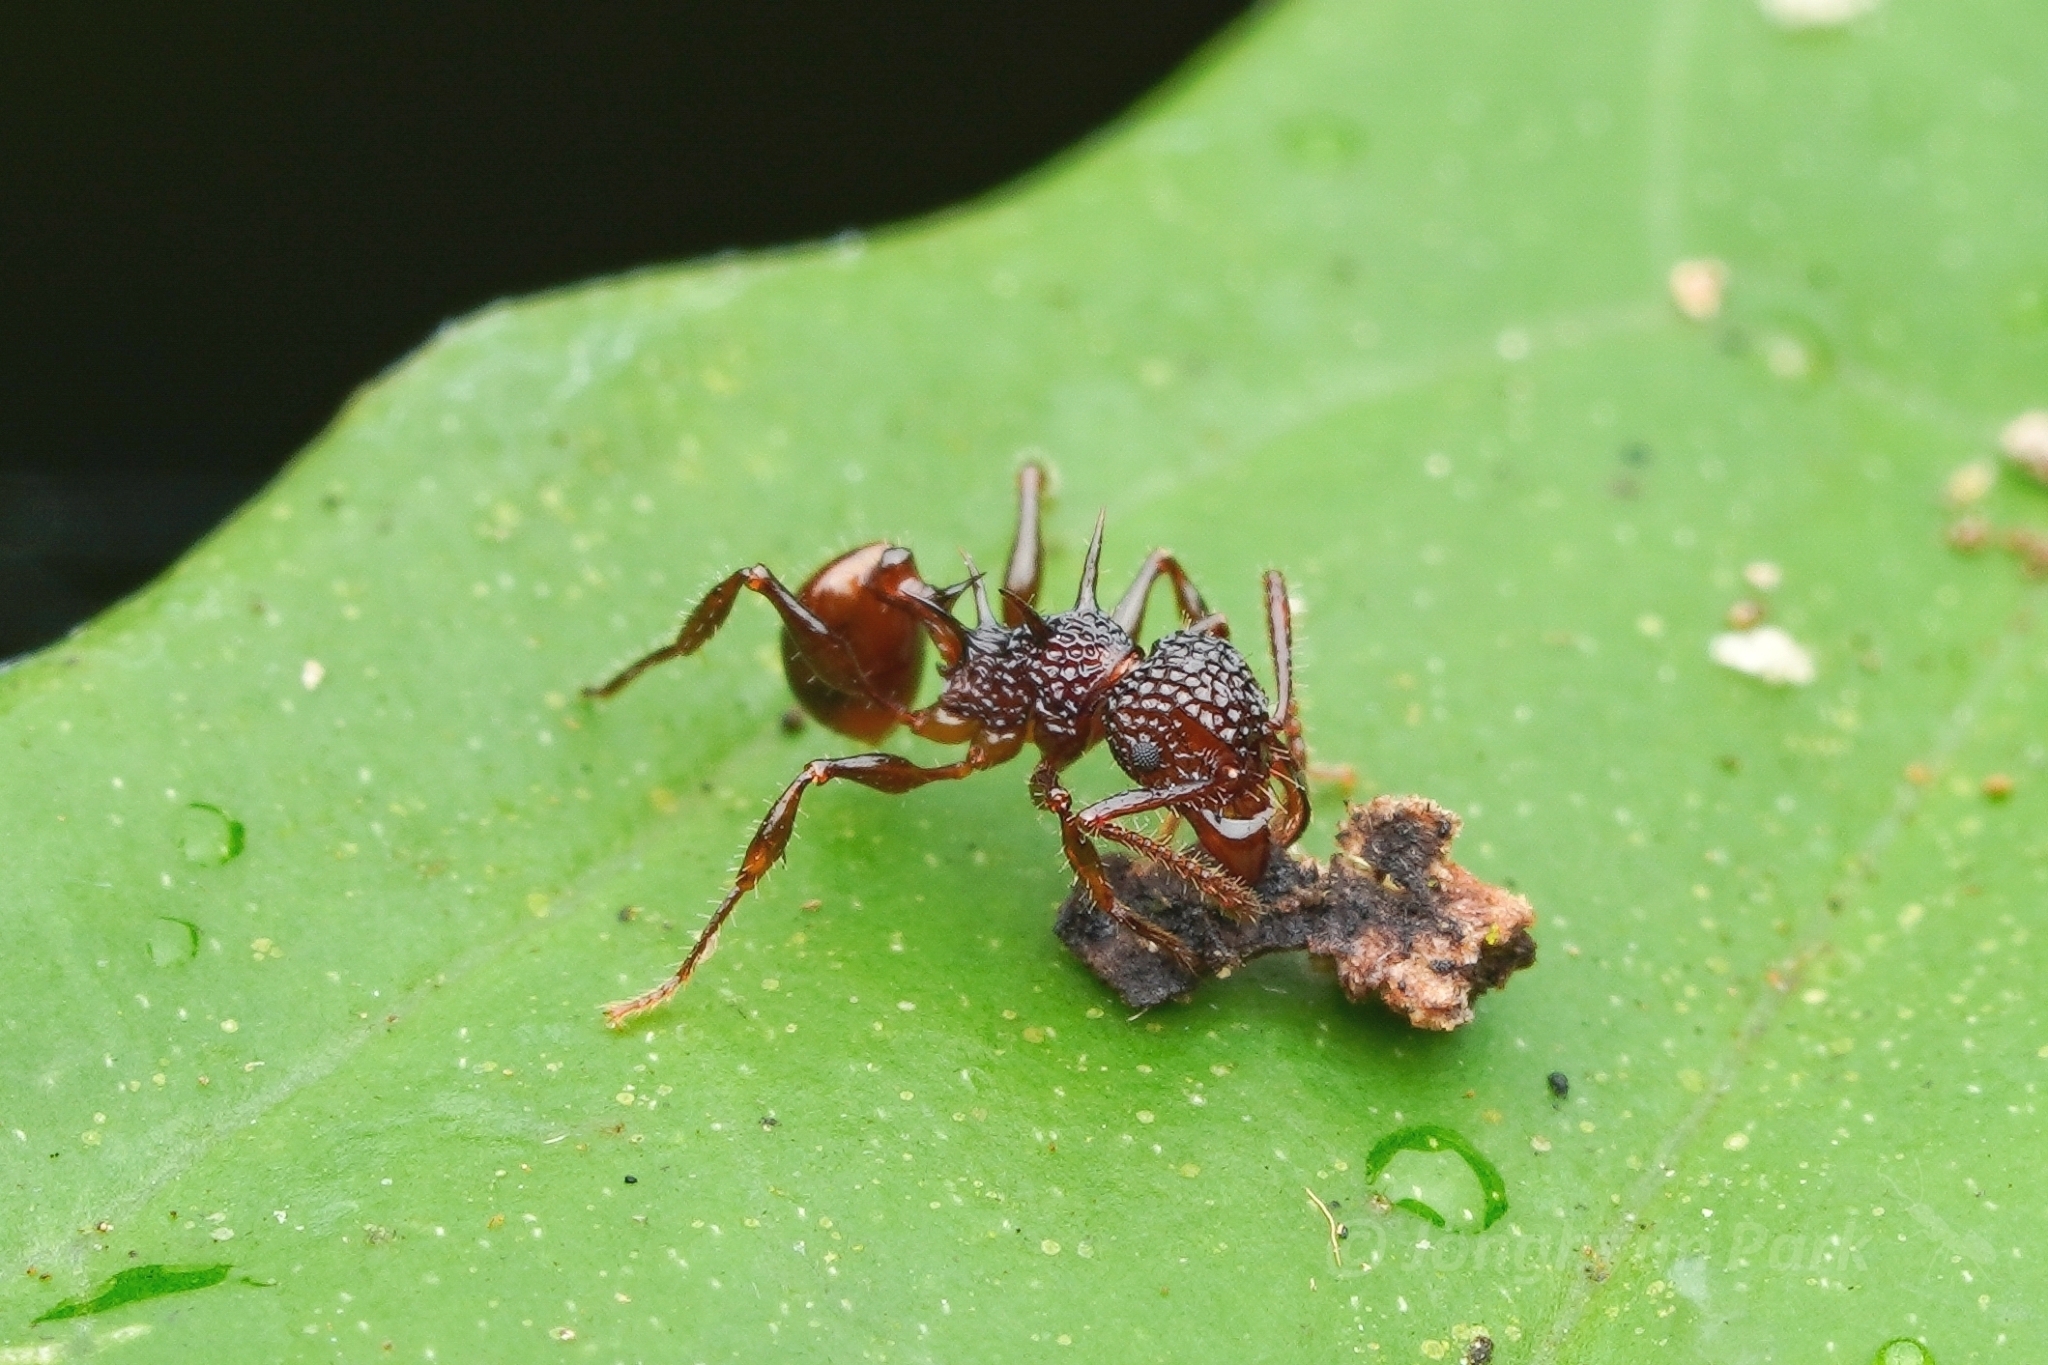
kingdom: Animalia
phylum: Arthropoda
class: Insecta
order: Hymenoptera
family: Formicidae
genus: Acanthomyrmex
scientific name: Acanthomyrmex ferox
